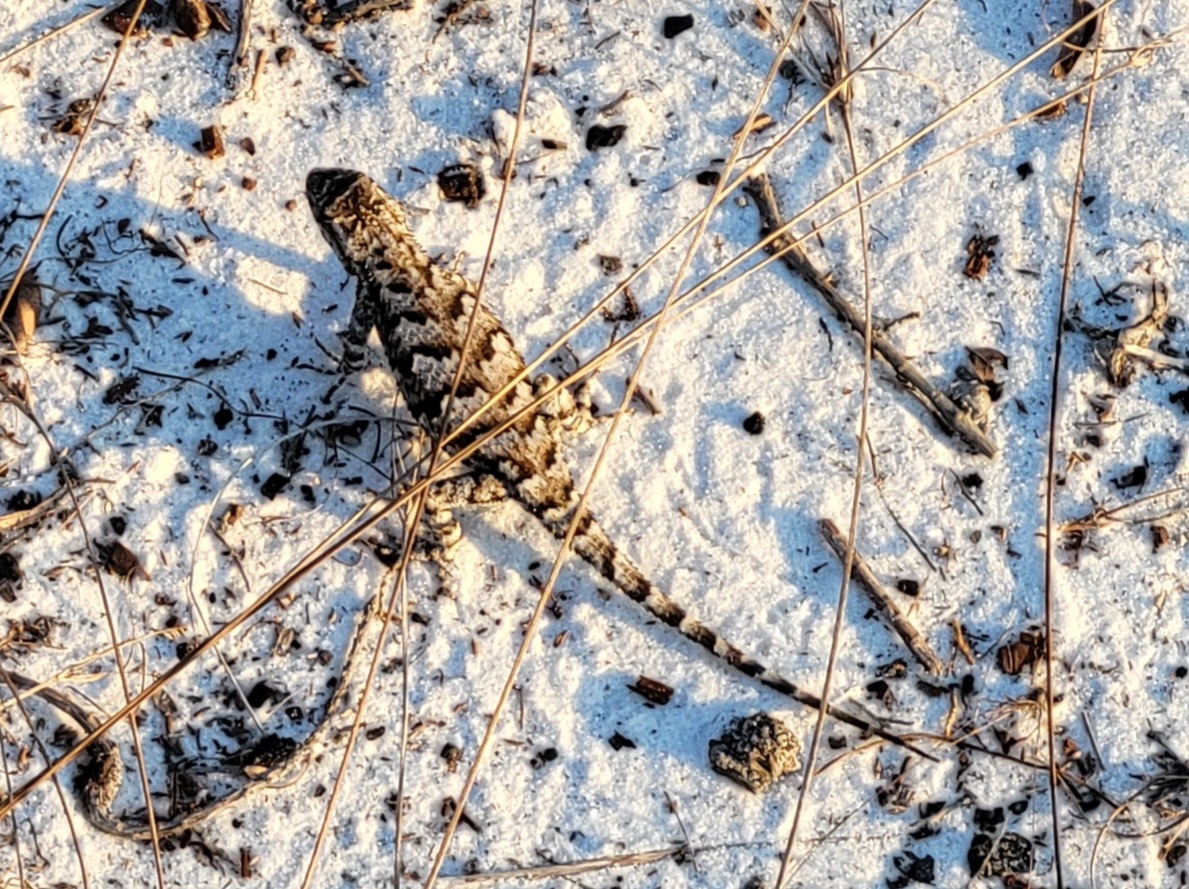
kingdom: Animalia
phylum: Chordata
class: Squamata
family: Phrynosomatidae
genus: Sceloporus
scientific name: Sceloporus undulatus
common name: Eastern fence lizard
